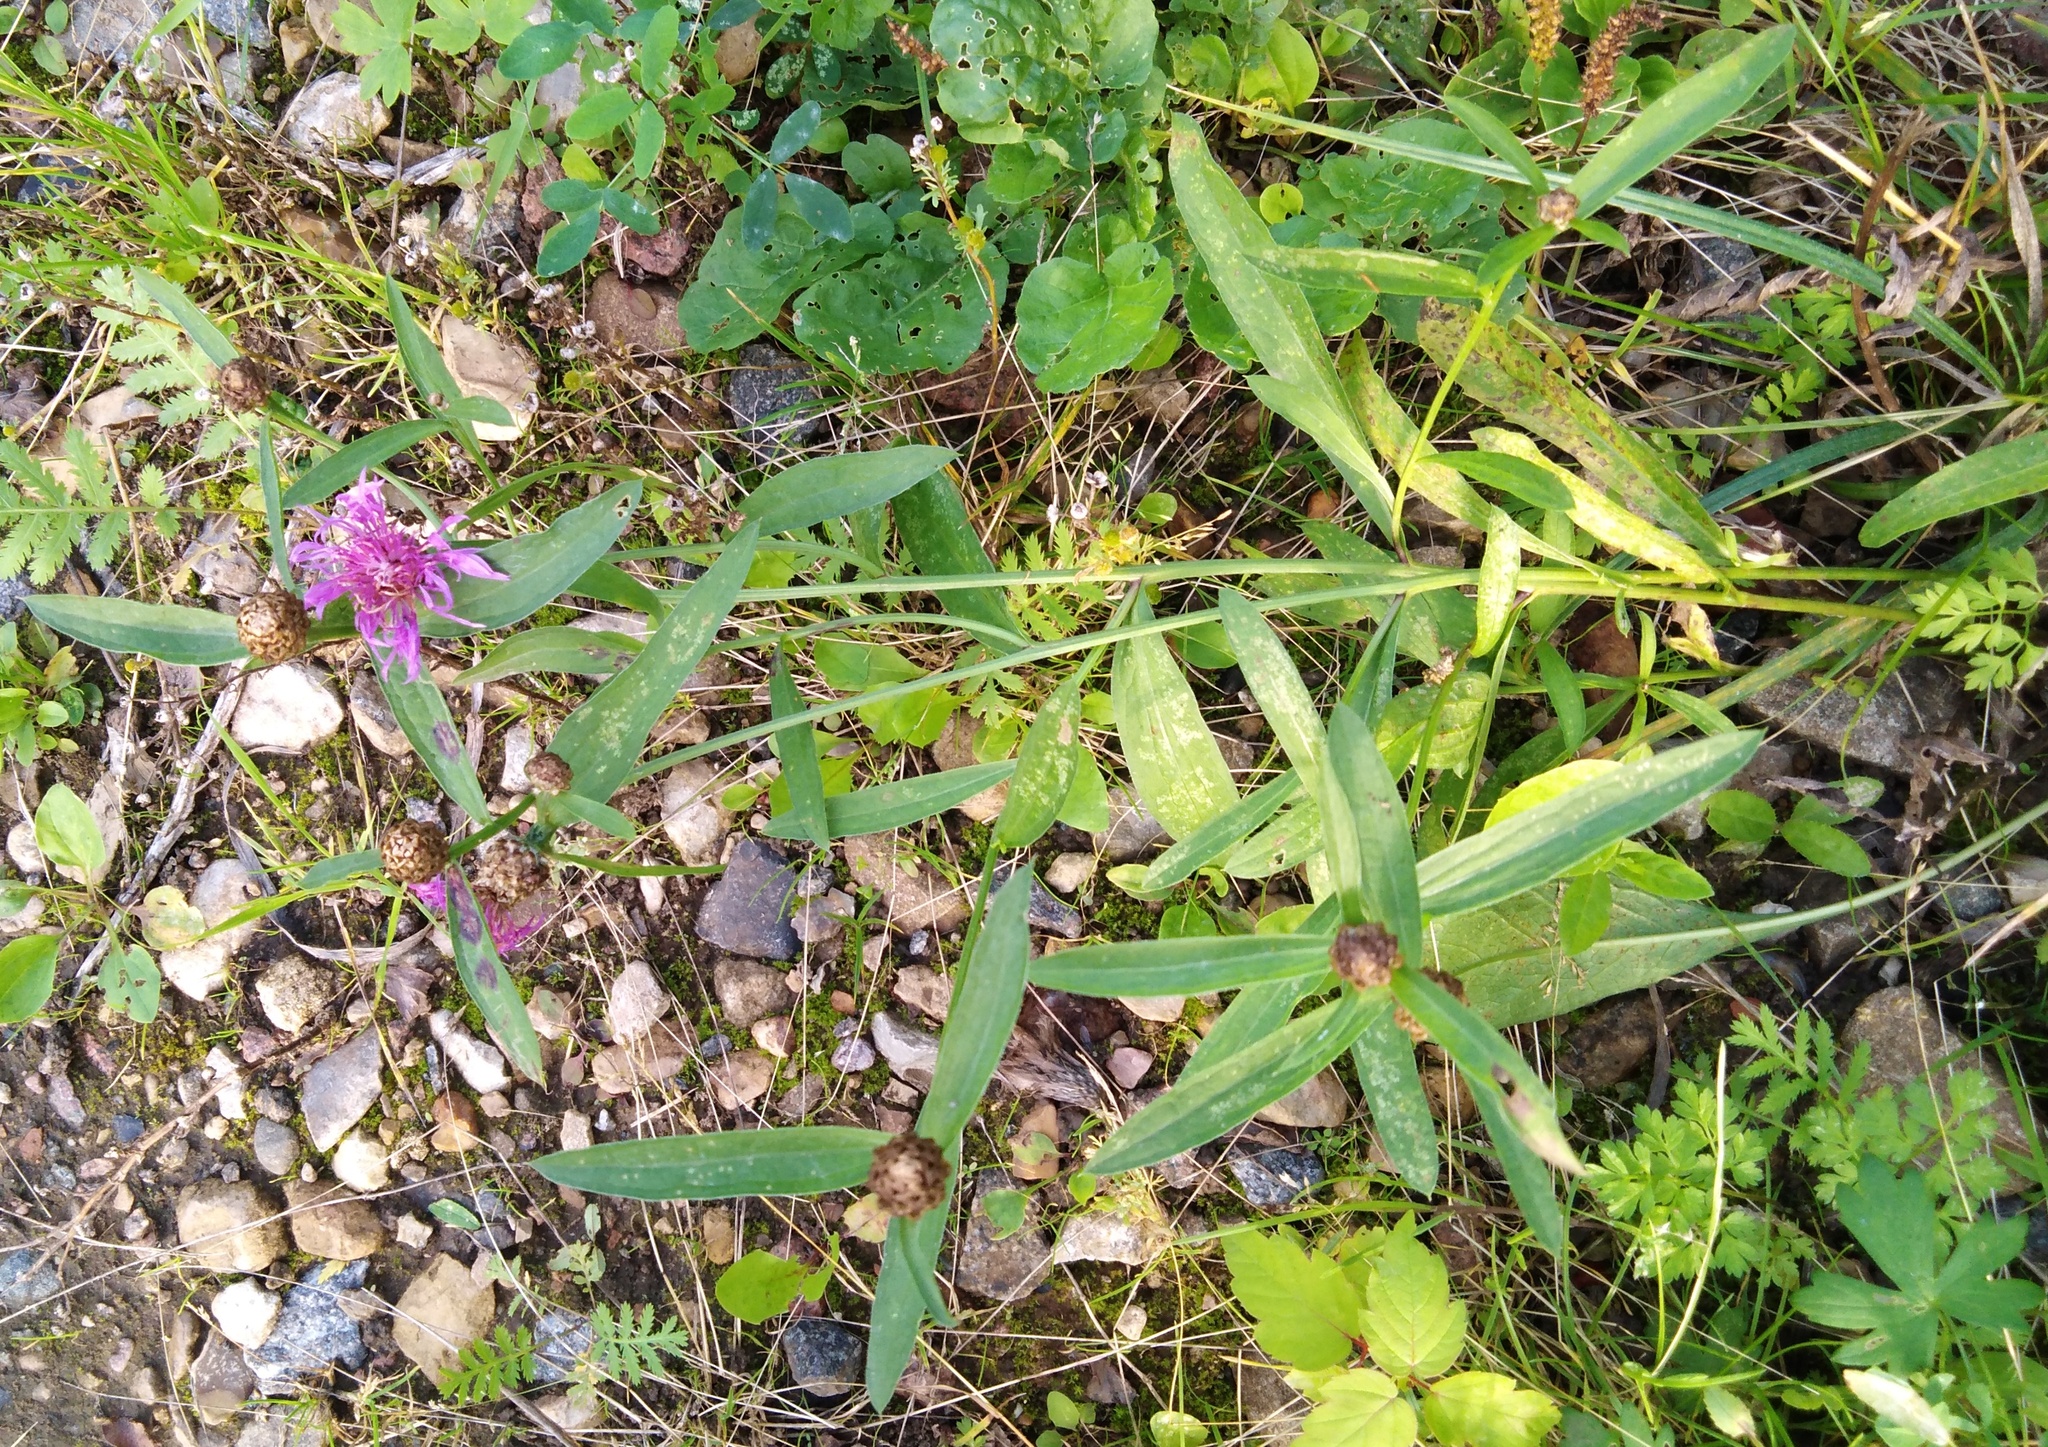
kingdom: Plantae
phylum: Tracheophyta
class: Magnoliopsida
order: Asterales
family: Asteraceae
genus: Centaurea
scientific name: Centaurea jacea
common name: Brown knapweed
